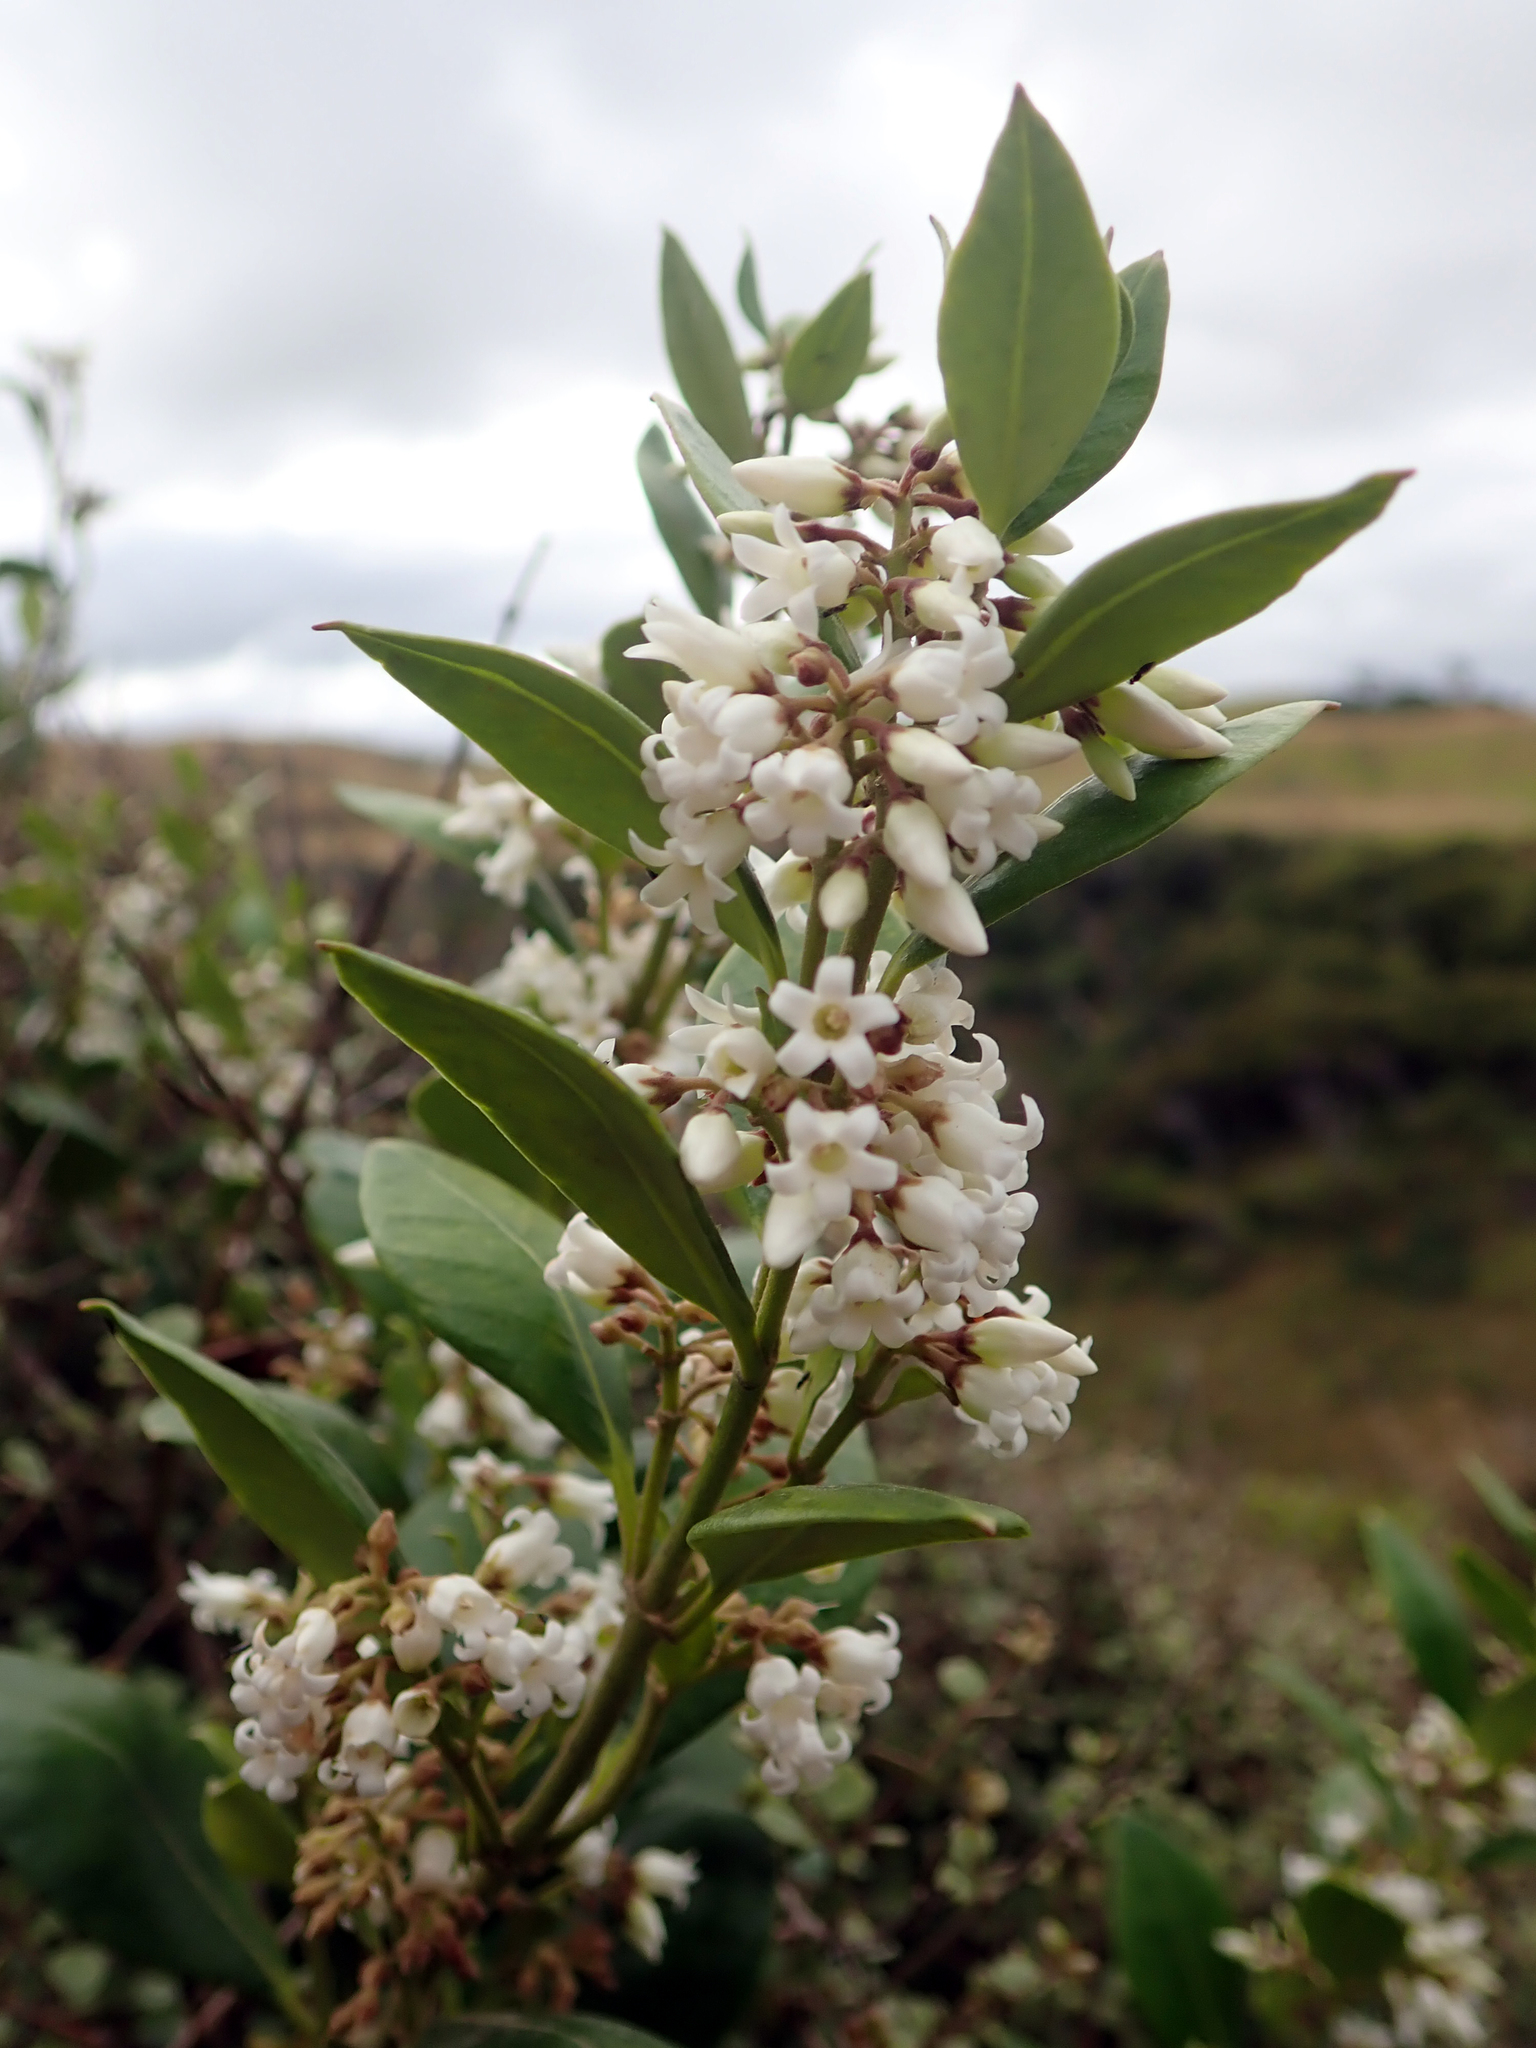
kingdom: Plantae
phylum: Tracheophyta
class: Magnoliopsida
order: Gentianales
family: Apocynaceae
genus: Parsonsia
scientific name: Parsonsia heterophylla
